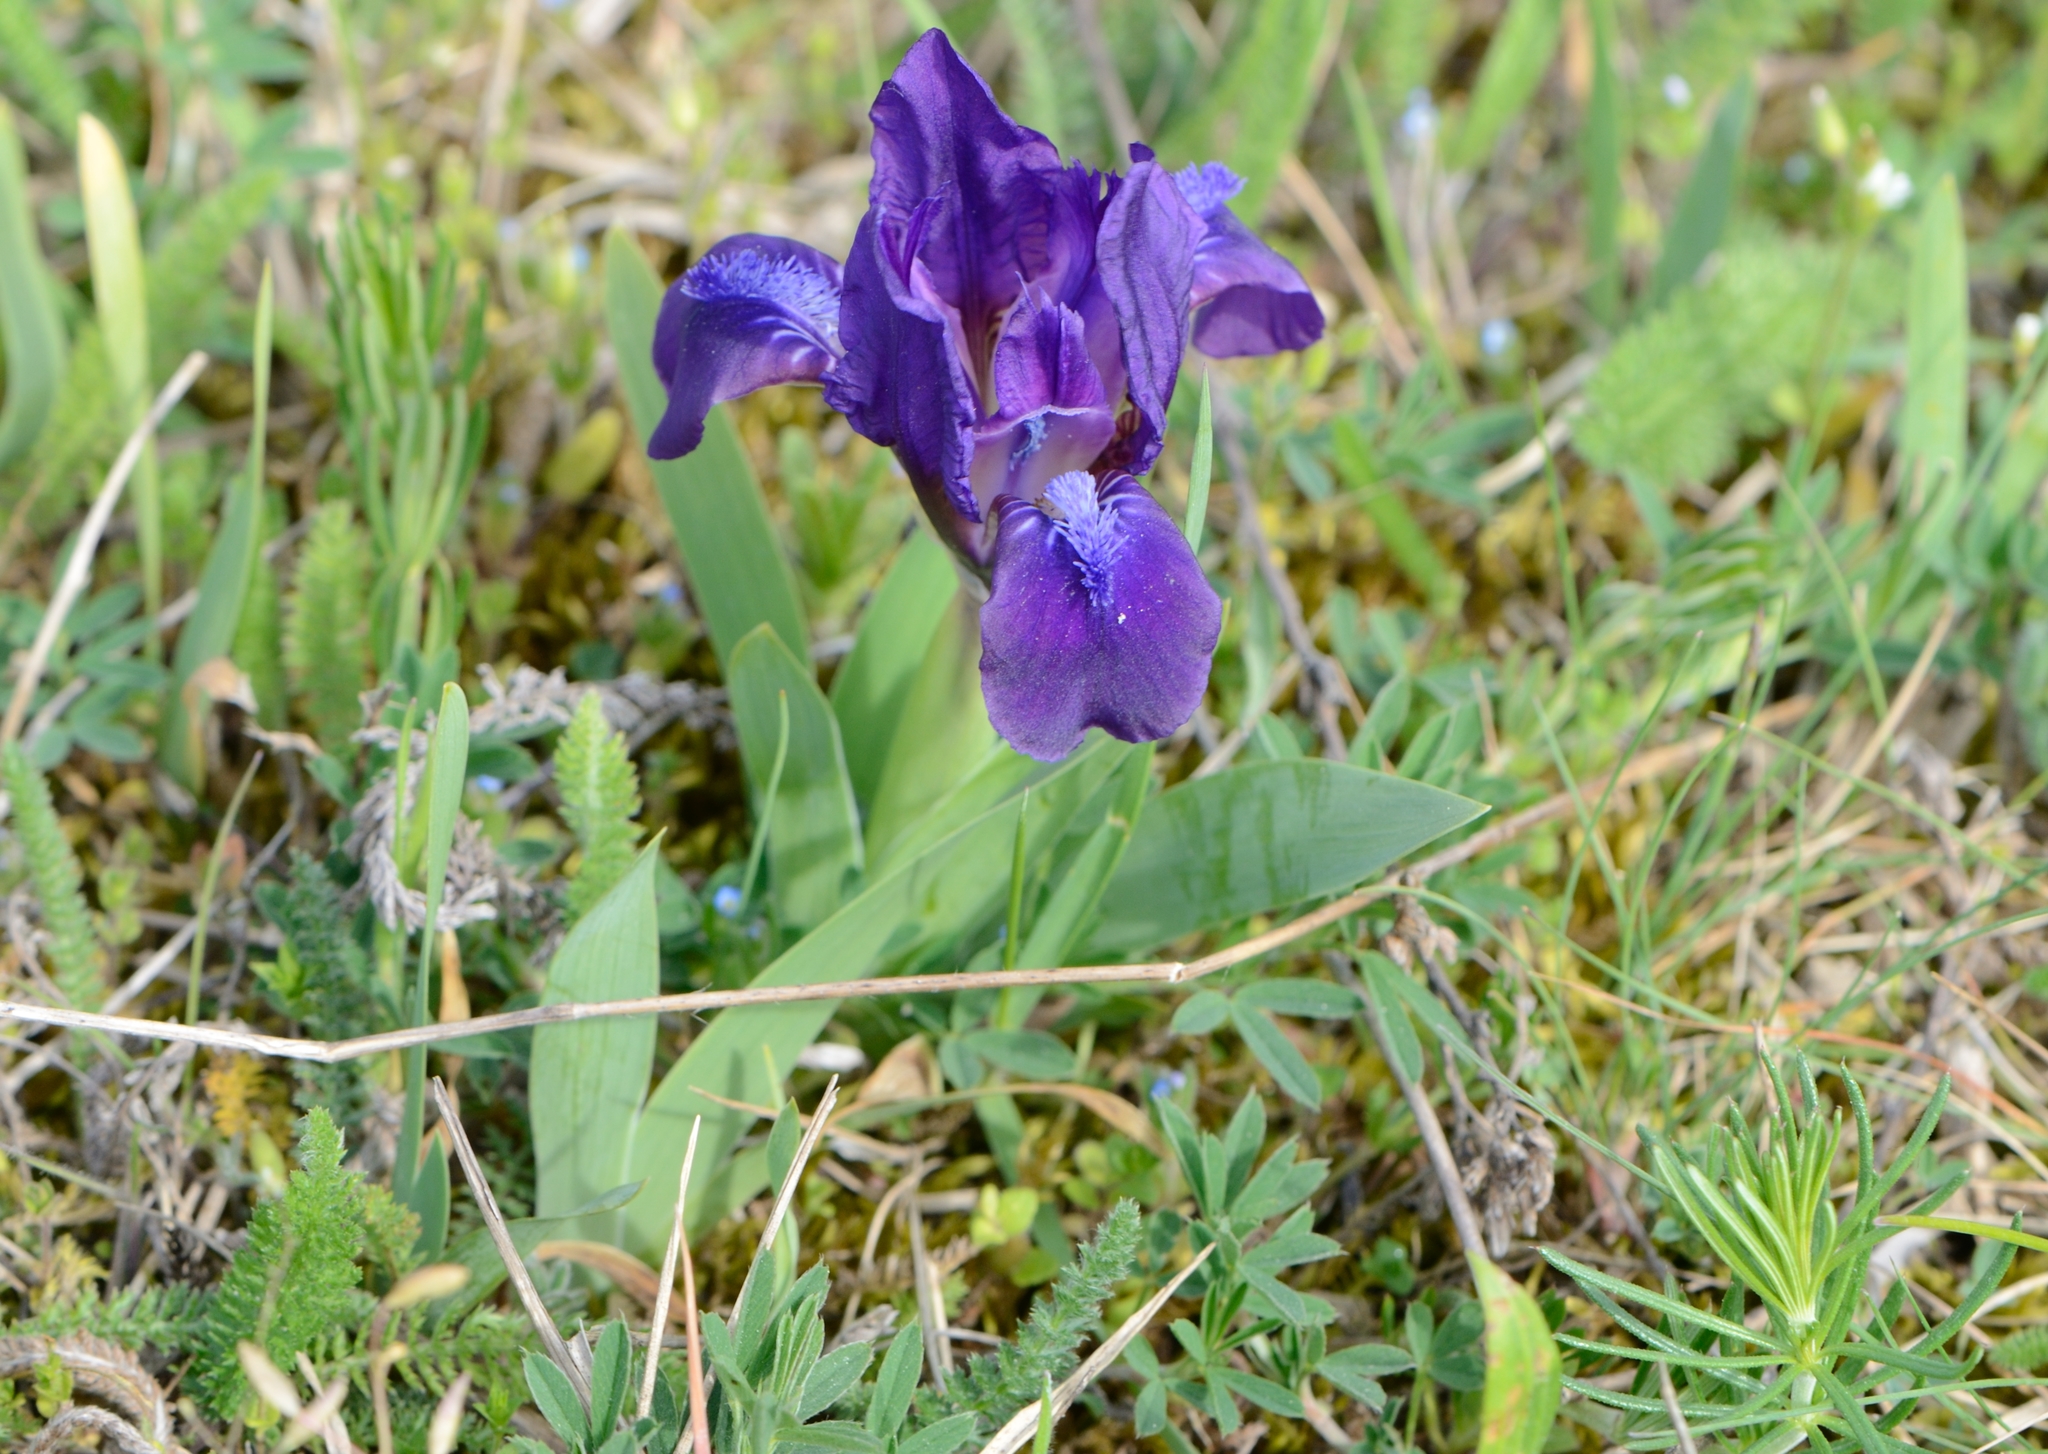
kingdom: Plantae
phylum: Tracheophyta
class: Liliopsida
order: Asparagales
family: Iridaceae
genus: Iris
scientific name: Iris pumila
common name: Dwarf iris
